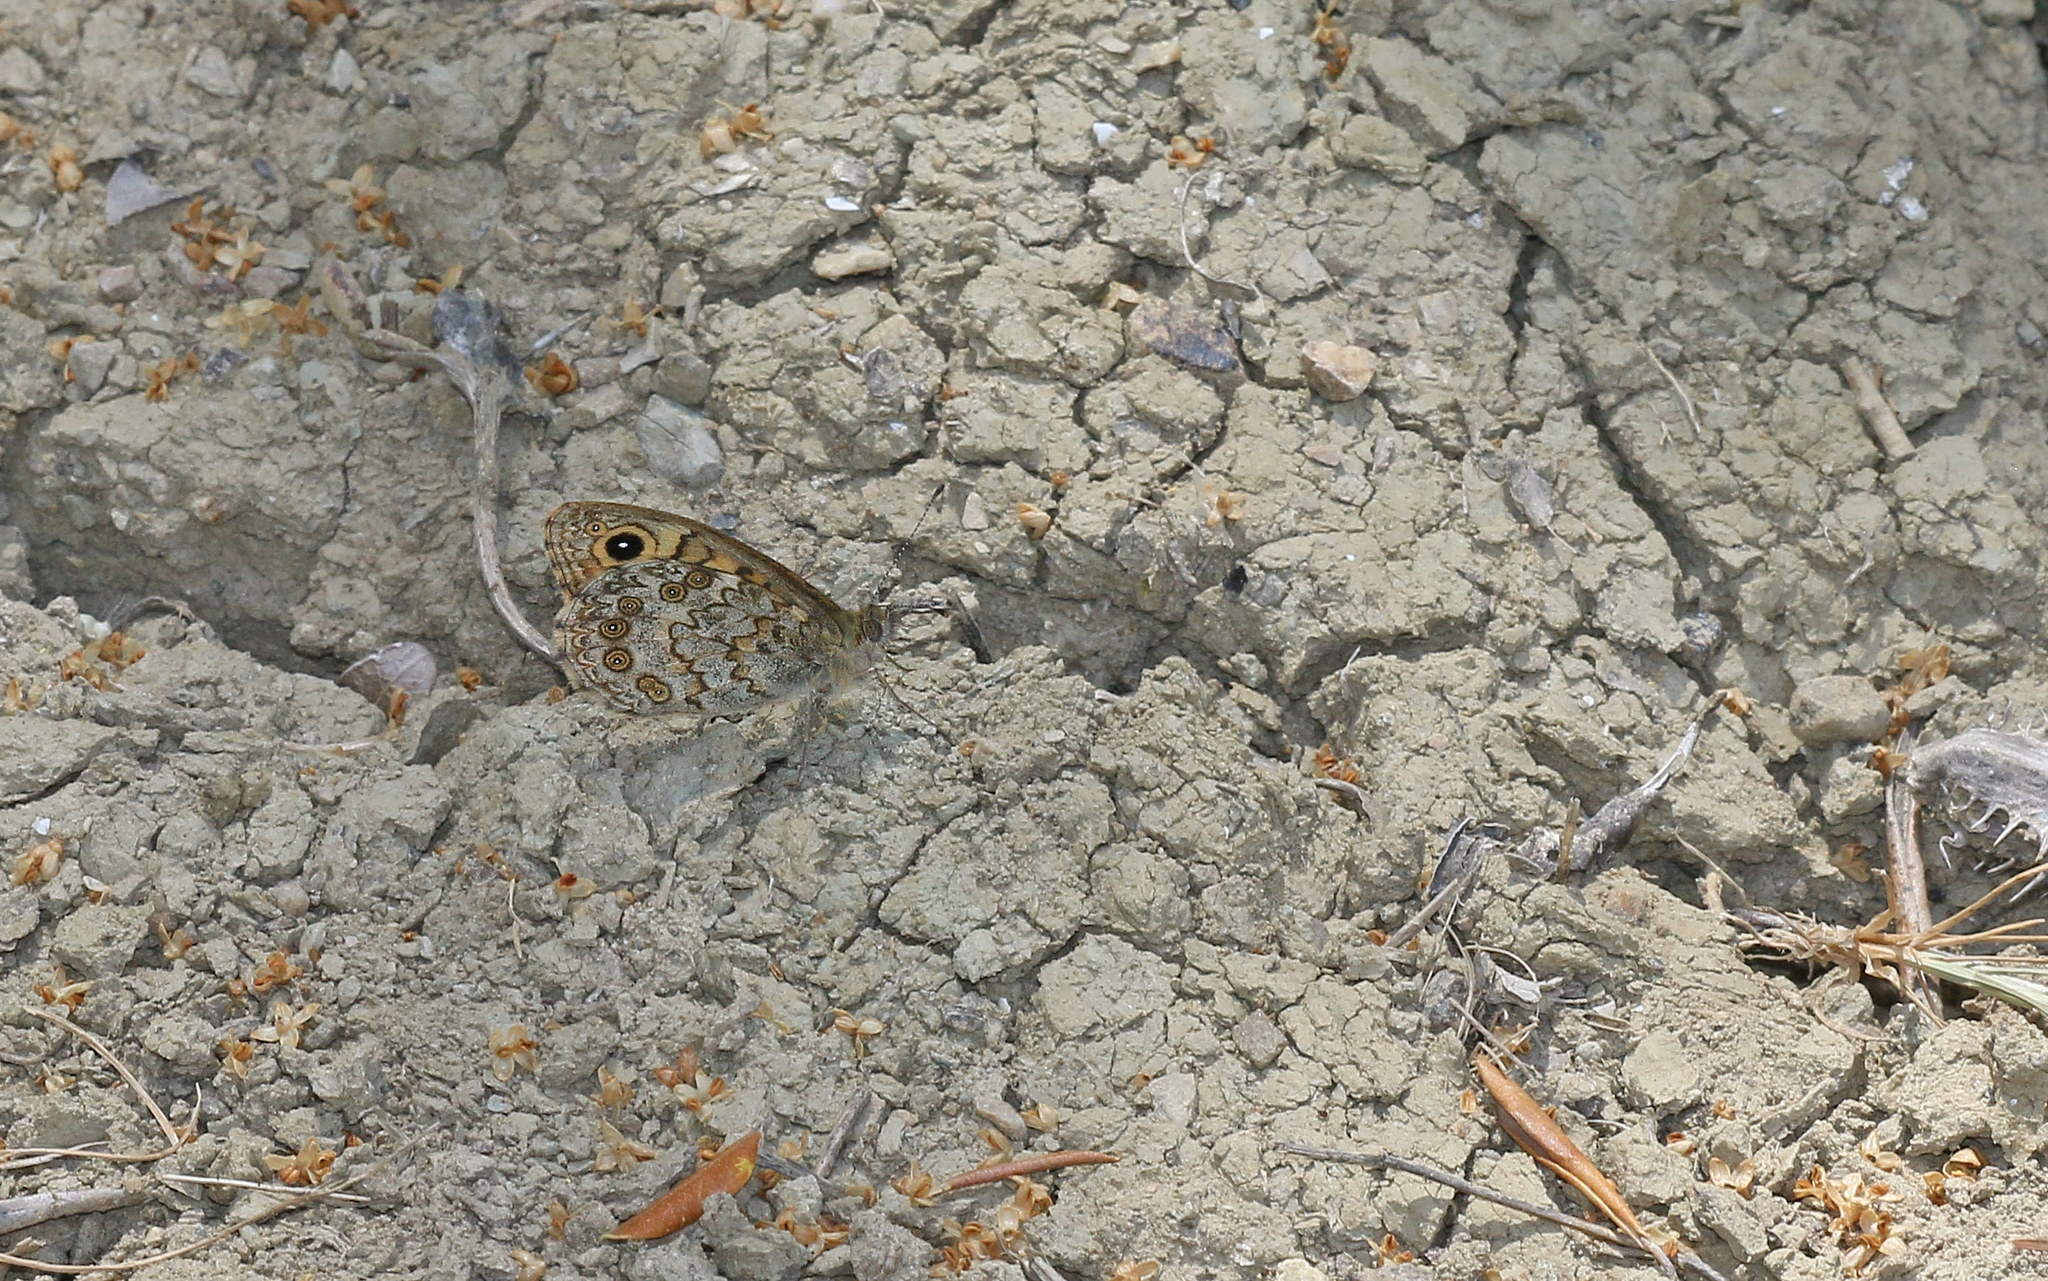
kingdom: Animalia
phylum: Arthropoda
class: Insecta
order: Lepidoptera
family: Nymphalidae
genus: Pararge
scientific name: Pararge Lasiommata megera
